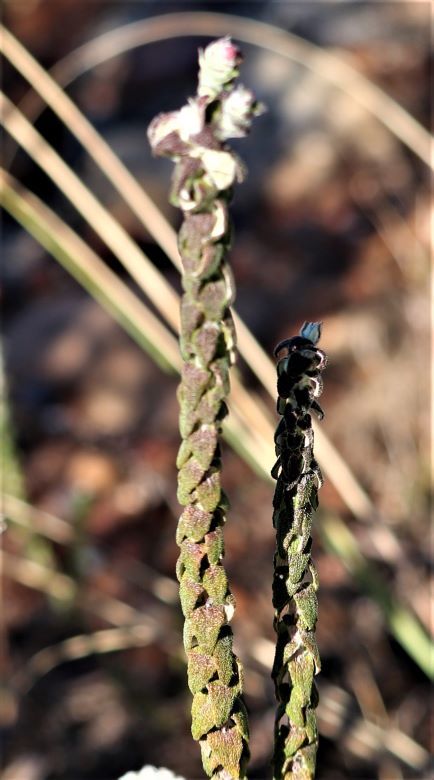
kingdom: Plantae
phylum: Tracheophyta
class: Magnoliopsida
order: Asterales
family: Asteraceae
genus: Helichrysum
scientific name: Helichrysum felinum
